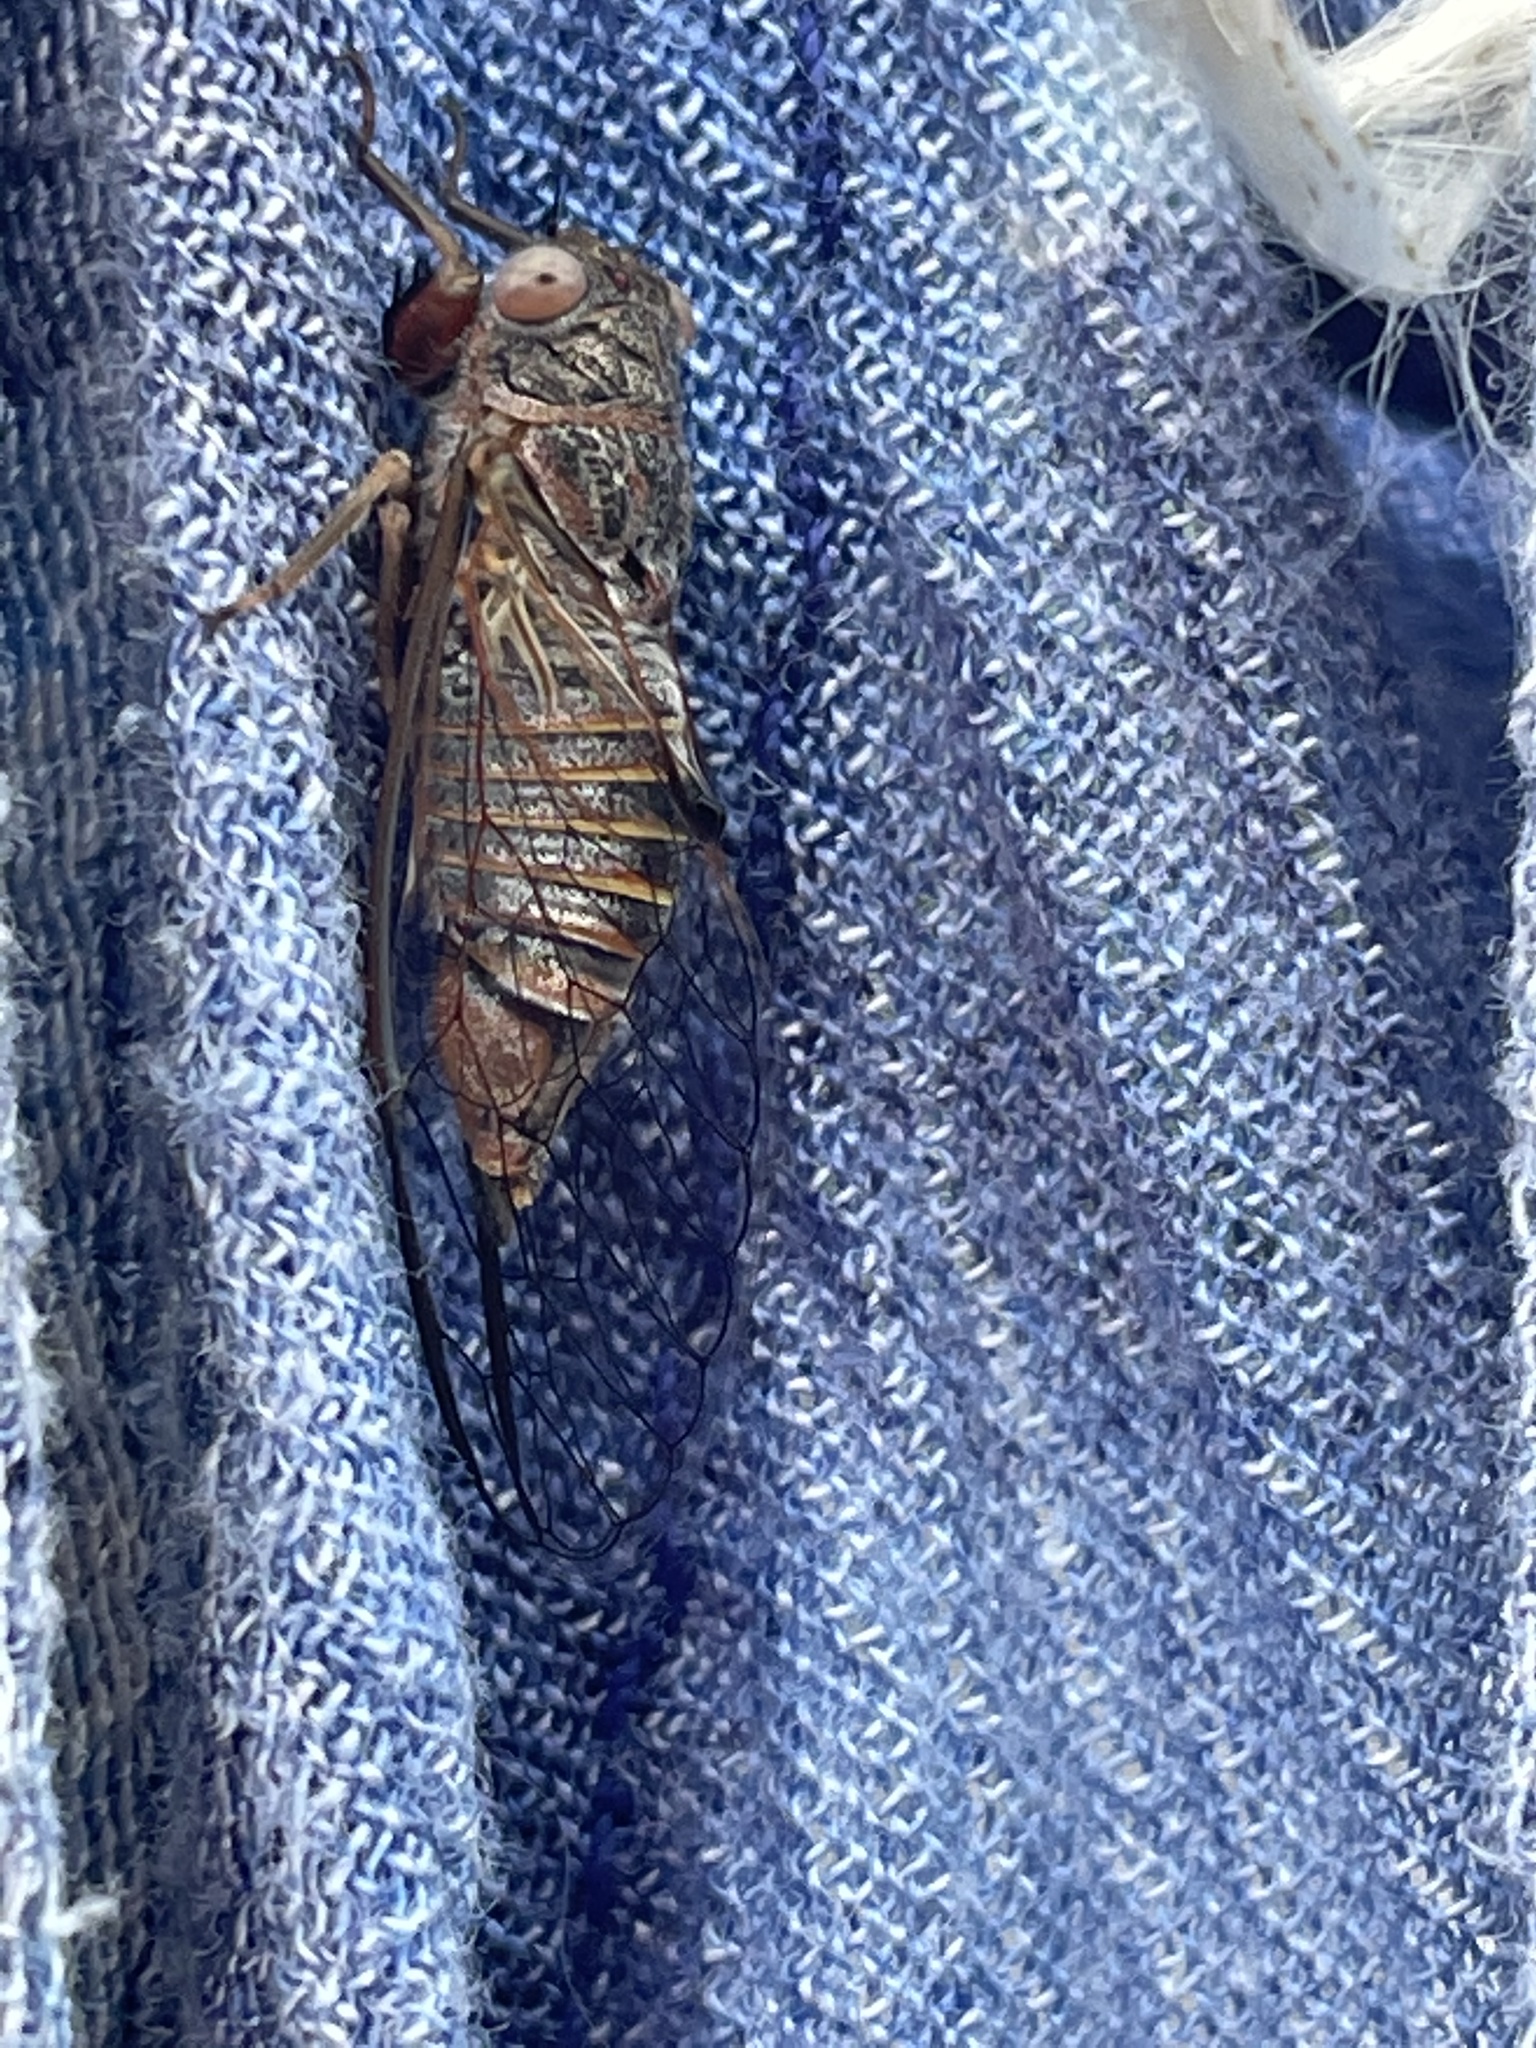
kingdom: Animalia
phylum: Arthropoda
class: Insecta
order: Hemiptera
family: Cicadidae
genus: Popplepsalta
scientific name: Popplepsalta annulata
